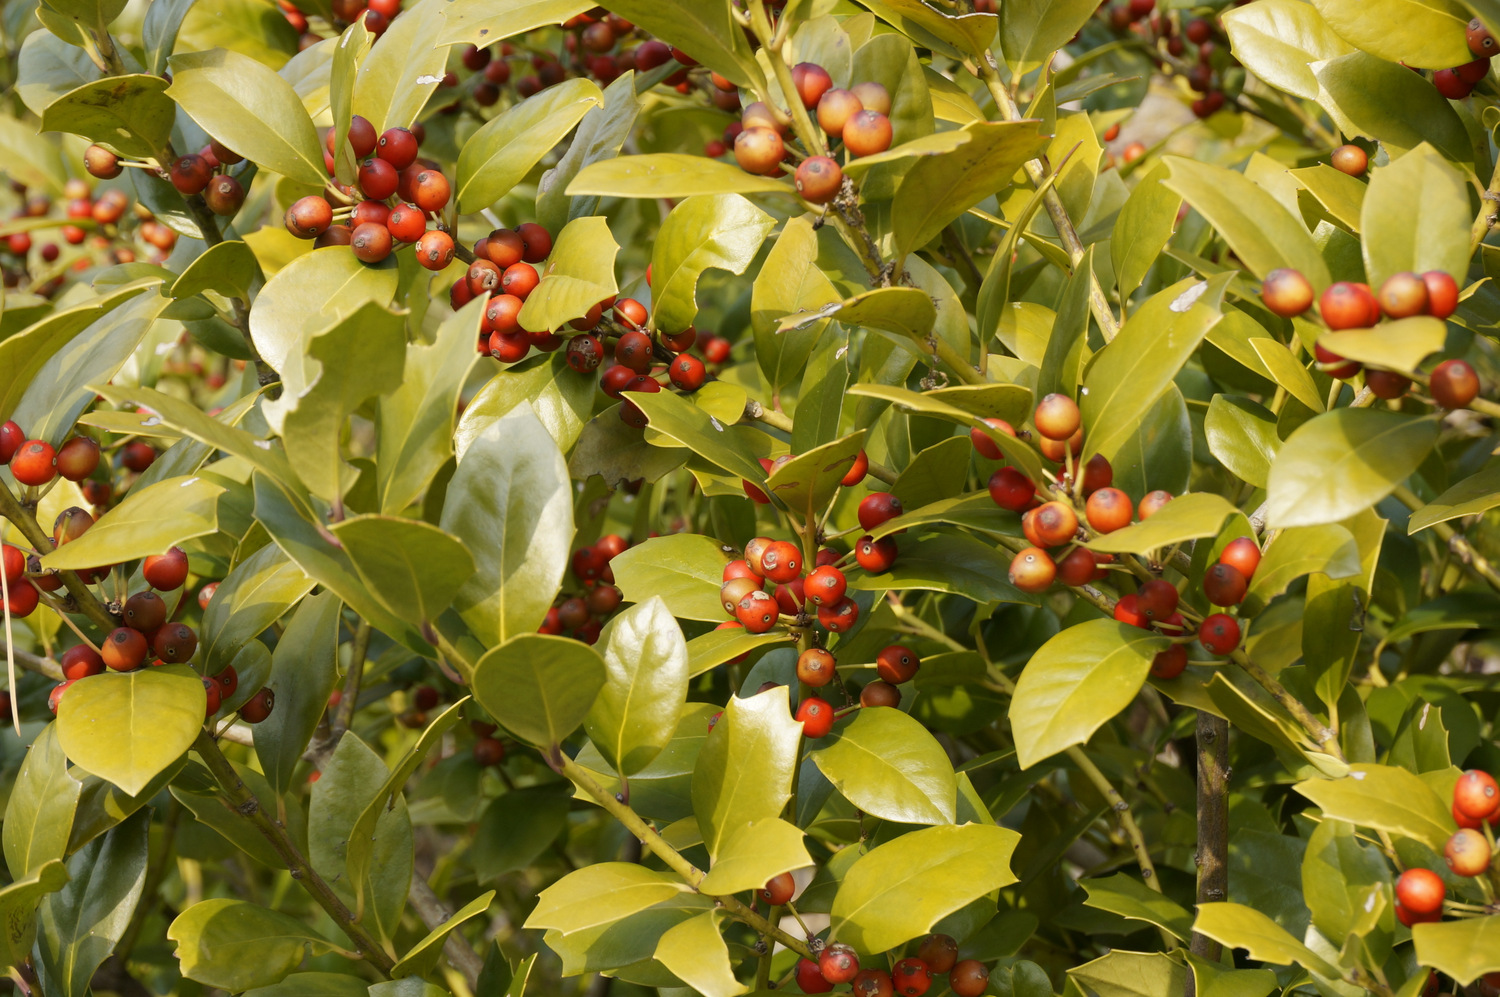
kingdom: Plantae
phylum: Tracheophyta
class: Magnoliopsida
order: Aquifoliales
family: Aquifoliaceae
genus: Ilex
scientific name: Ilex cornuta
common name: Chinese holly
